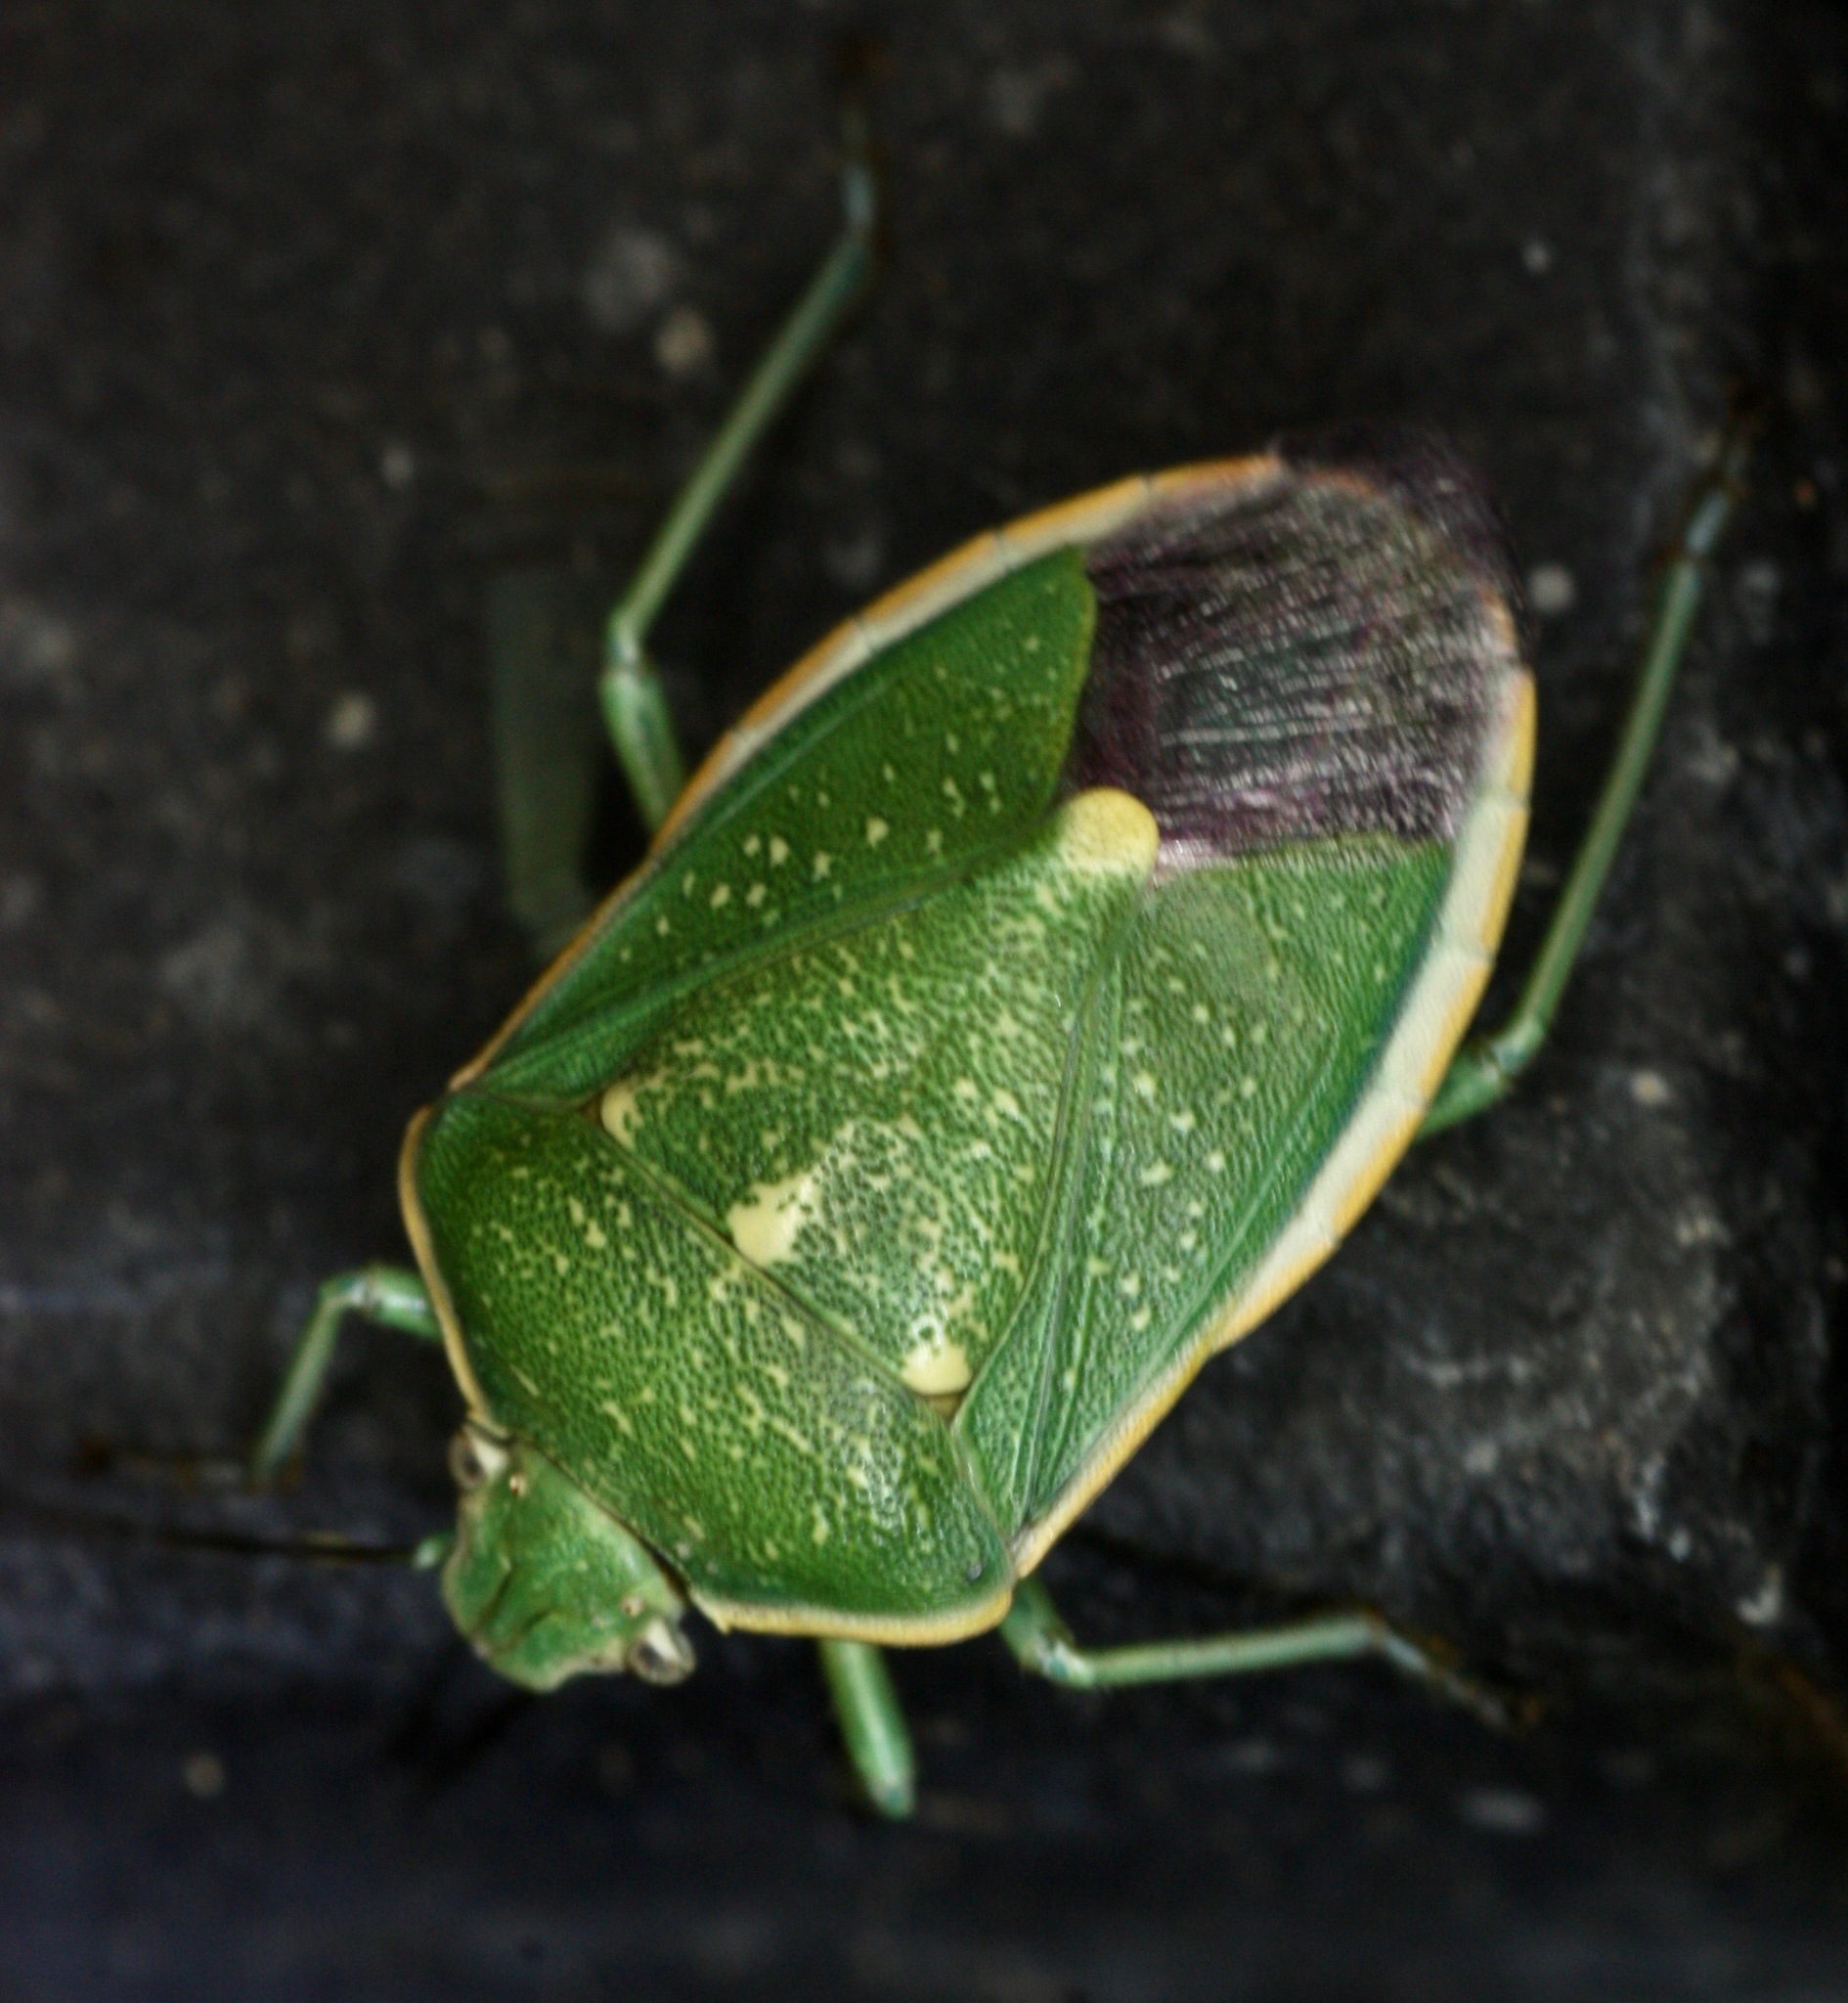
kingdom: Animalia
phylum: Arthropoda
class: Insecta
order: Hemiptera
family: Pentatomidae
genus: Chlorochroa
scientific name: Chlorochroa sayi
